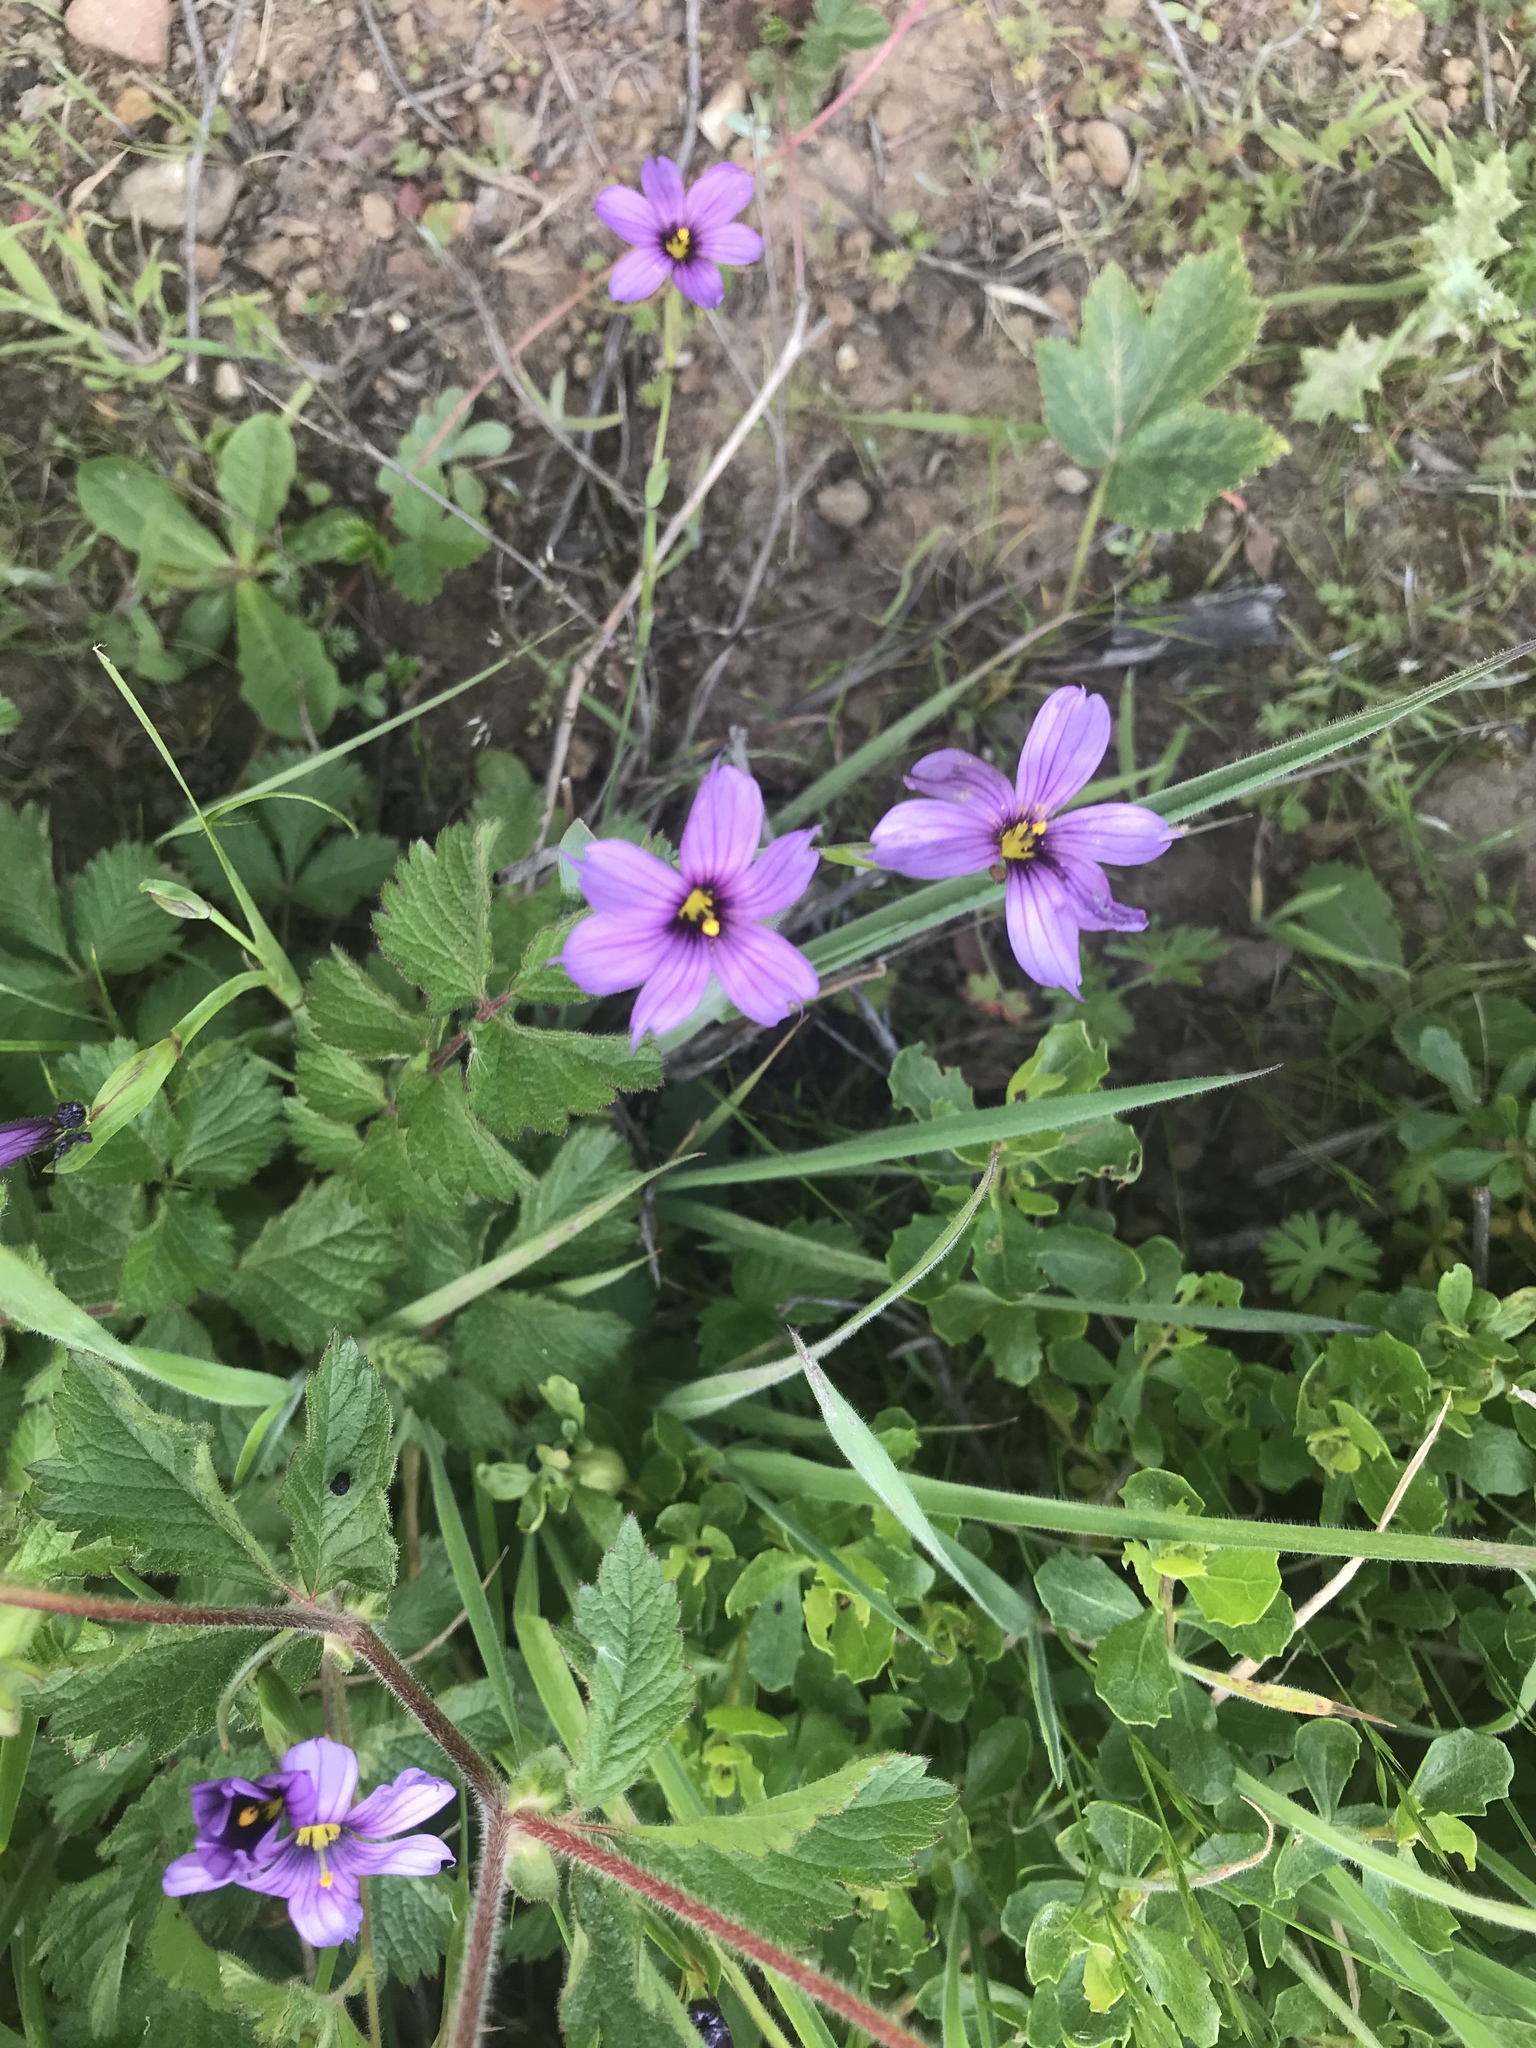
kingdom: Plantae
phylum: Tracheophyta
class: Liliopsida
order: Asparagales
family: Iridaceae
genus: Sisyrinchium
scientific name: Sisyrinchium bellum
